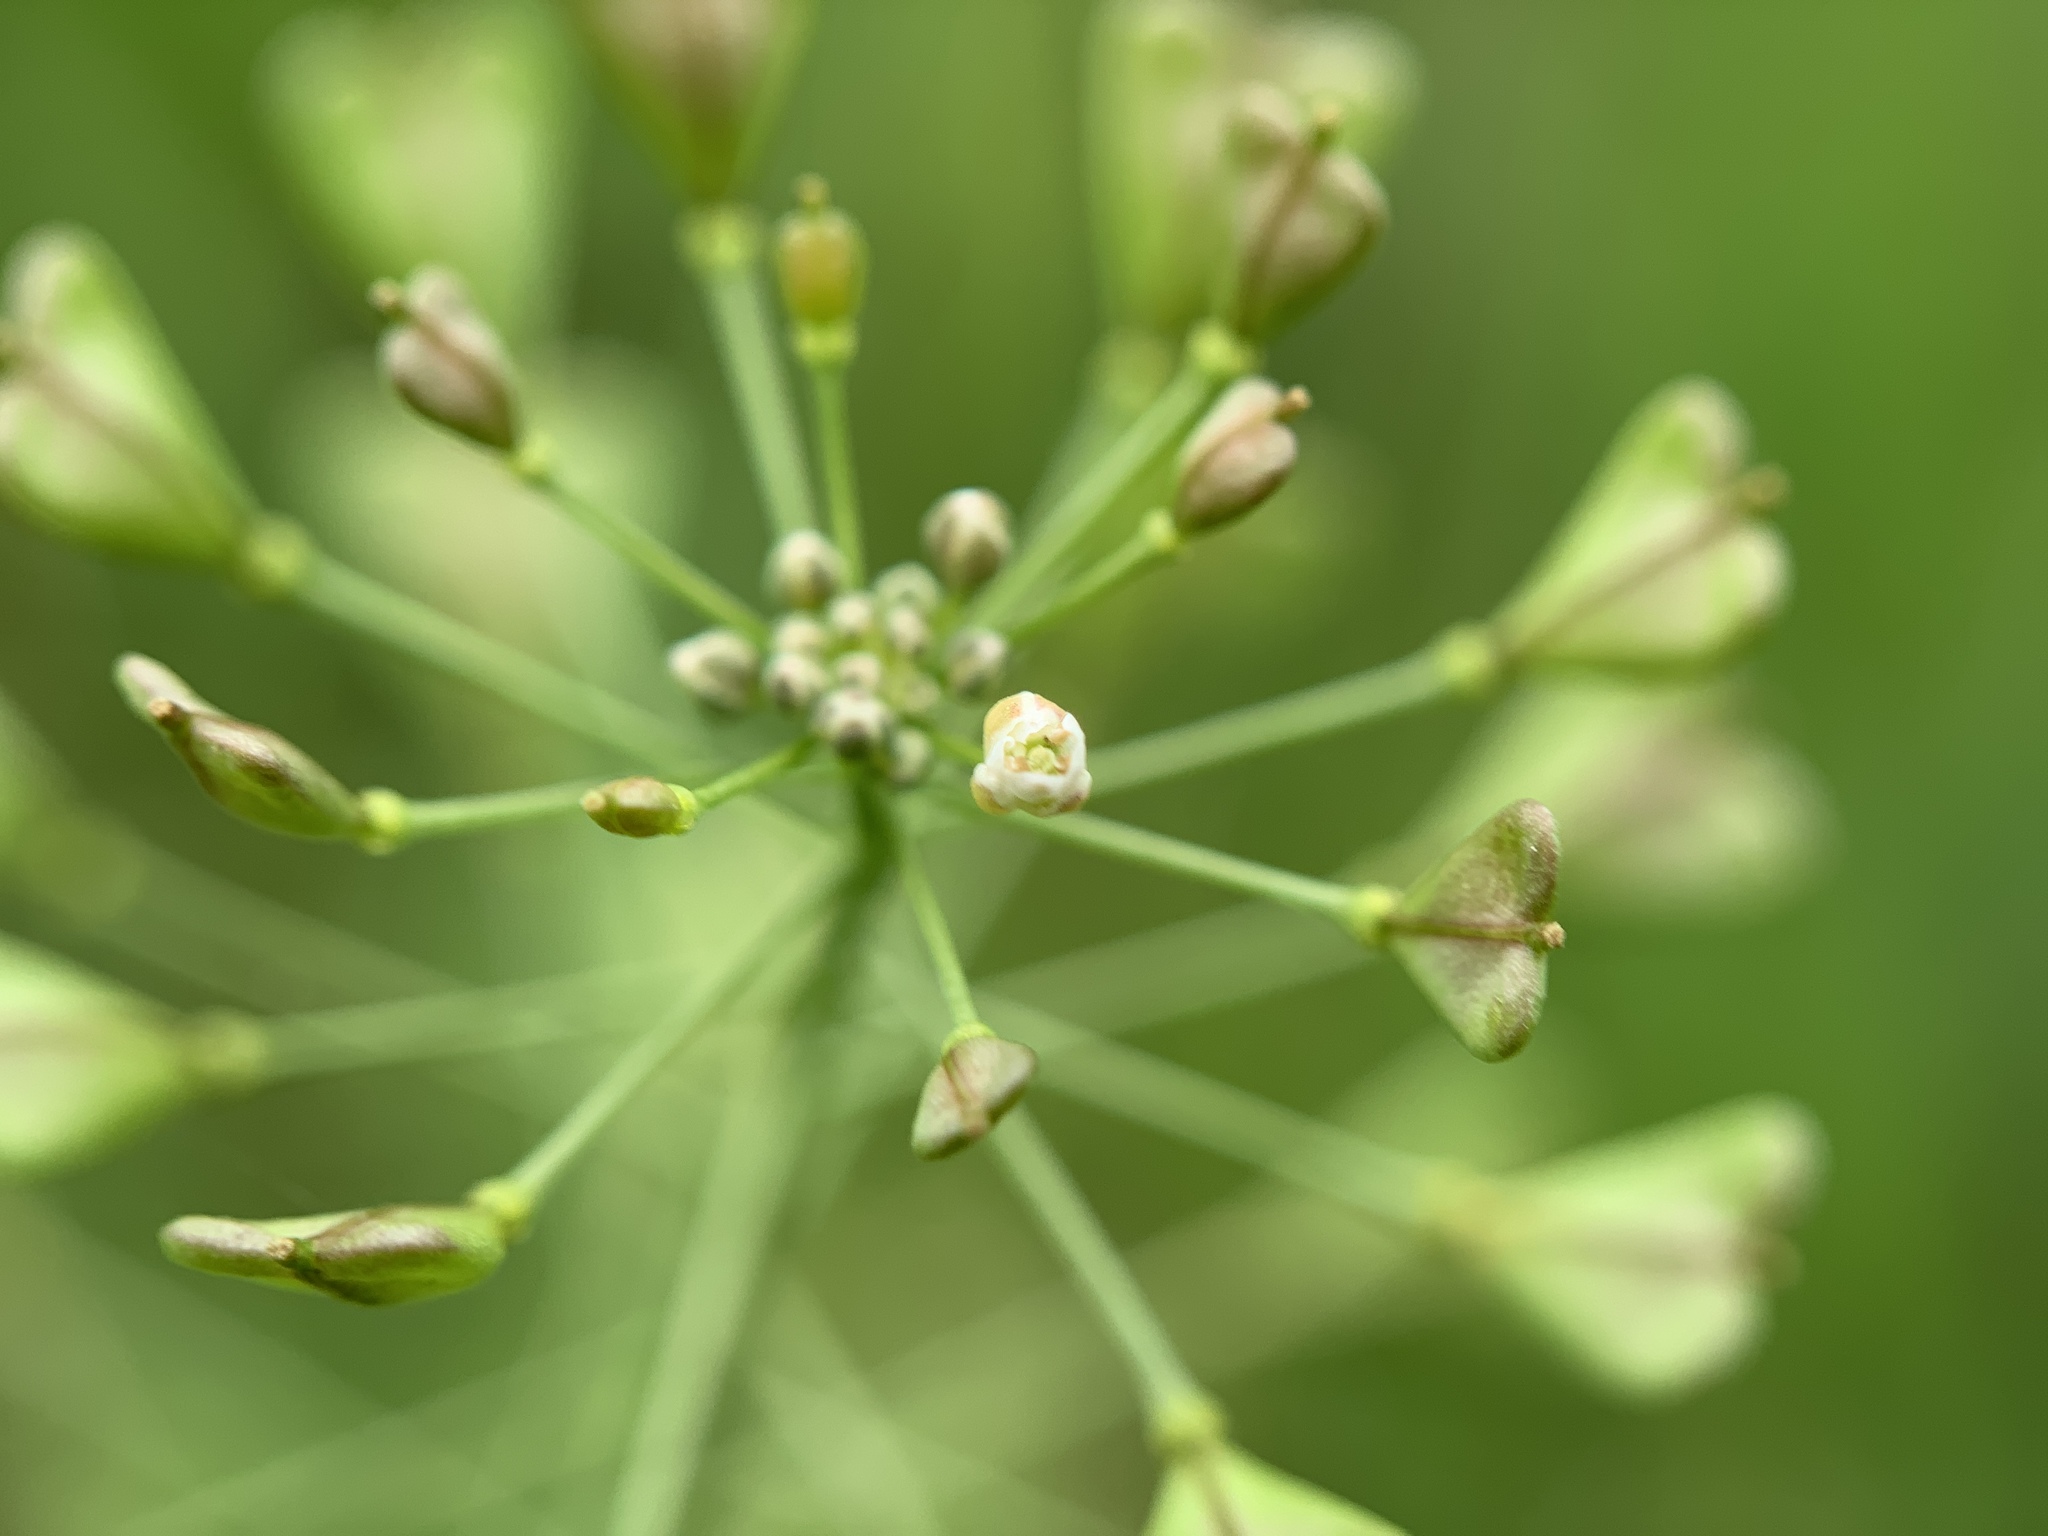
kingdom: Plantae
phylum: Tracheophyta
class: Magnoliopsida
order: Brassicales
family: Brassicaceae
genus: Capsella
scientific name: Capsella bursa-pastoris
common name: Shepherd's purse
